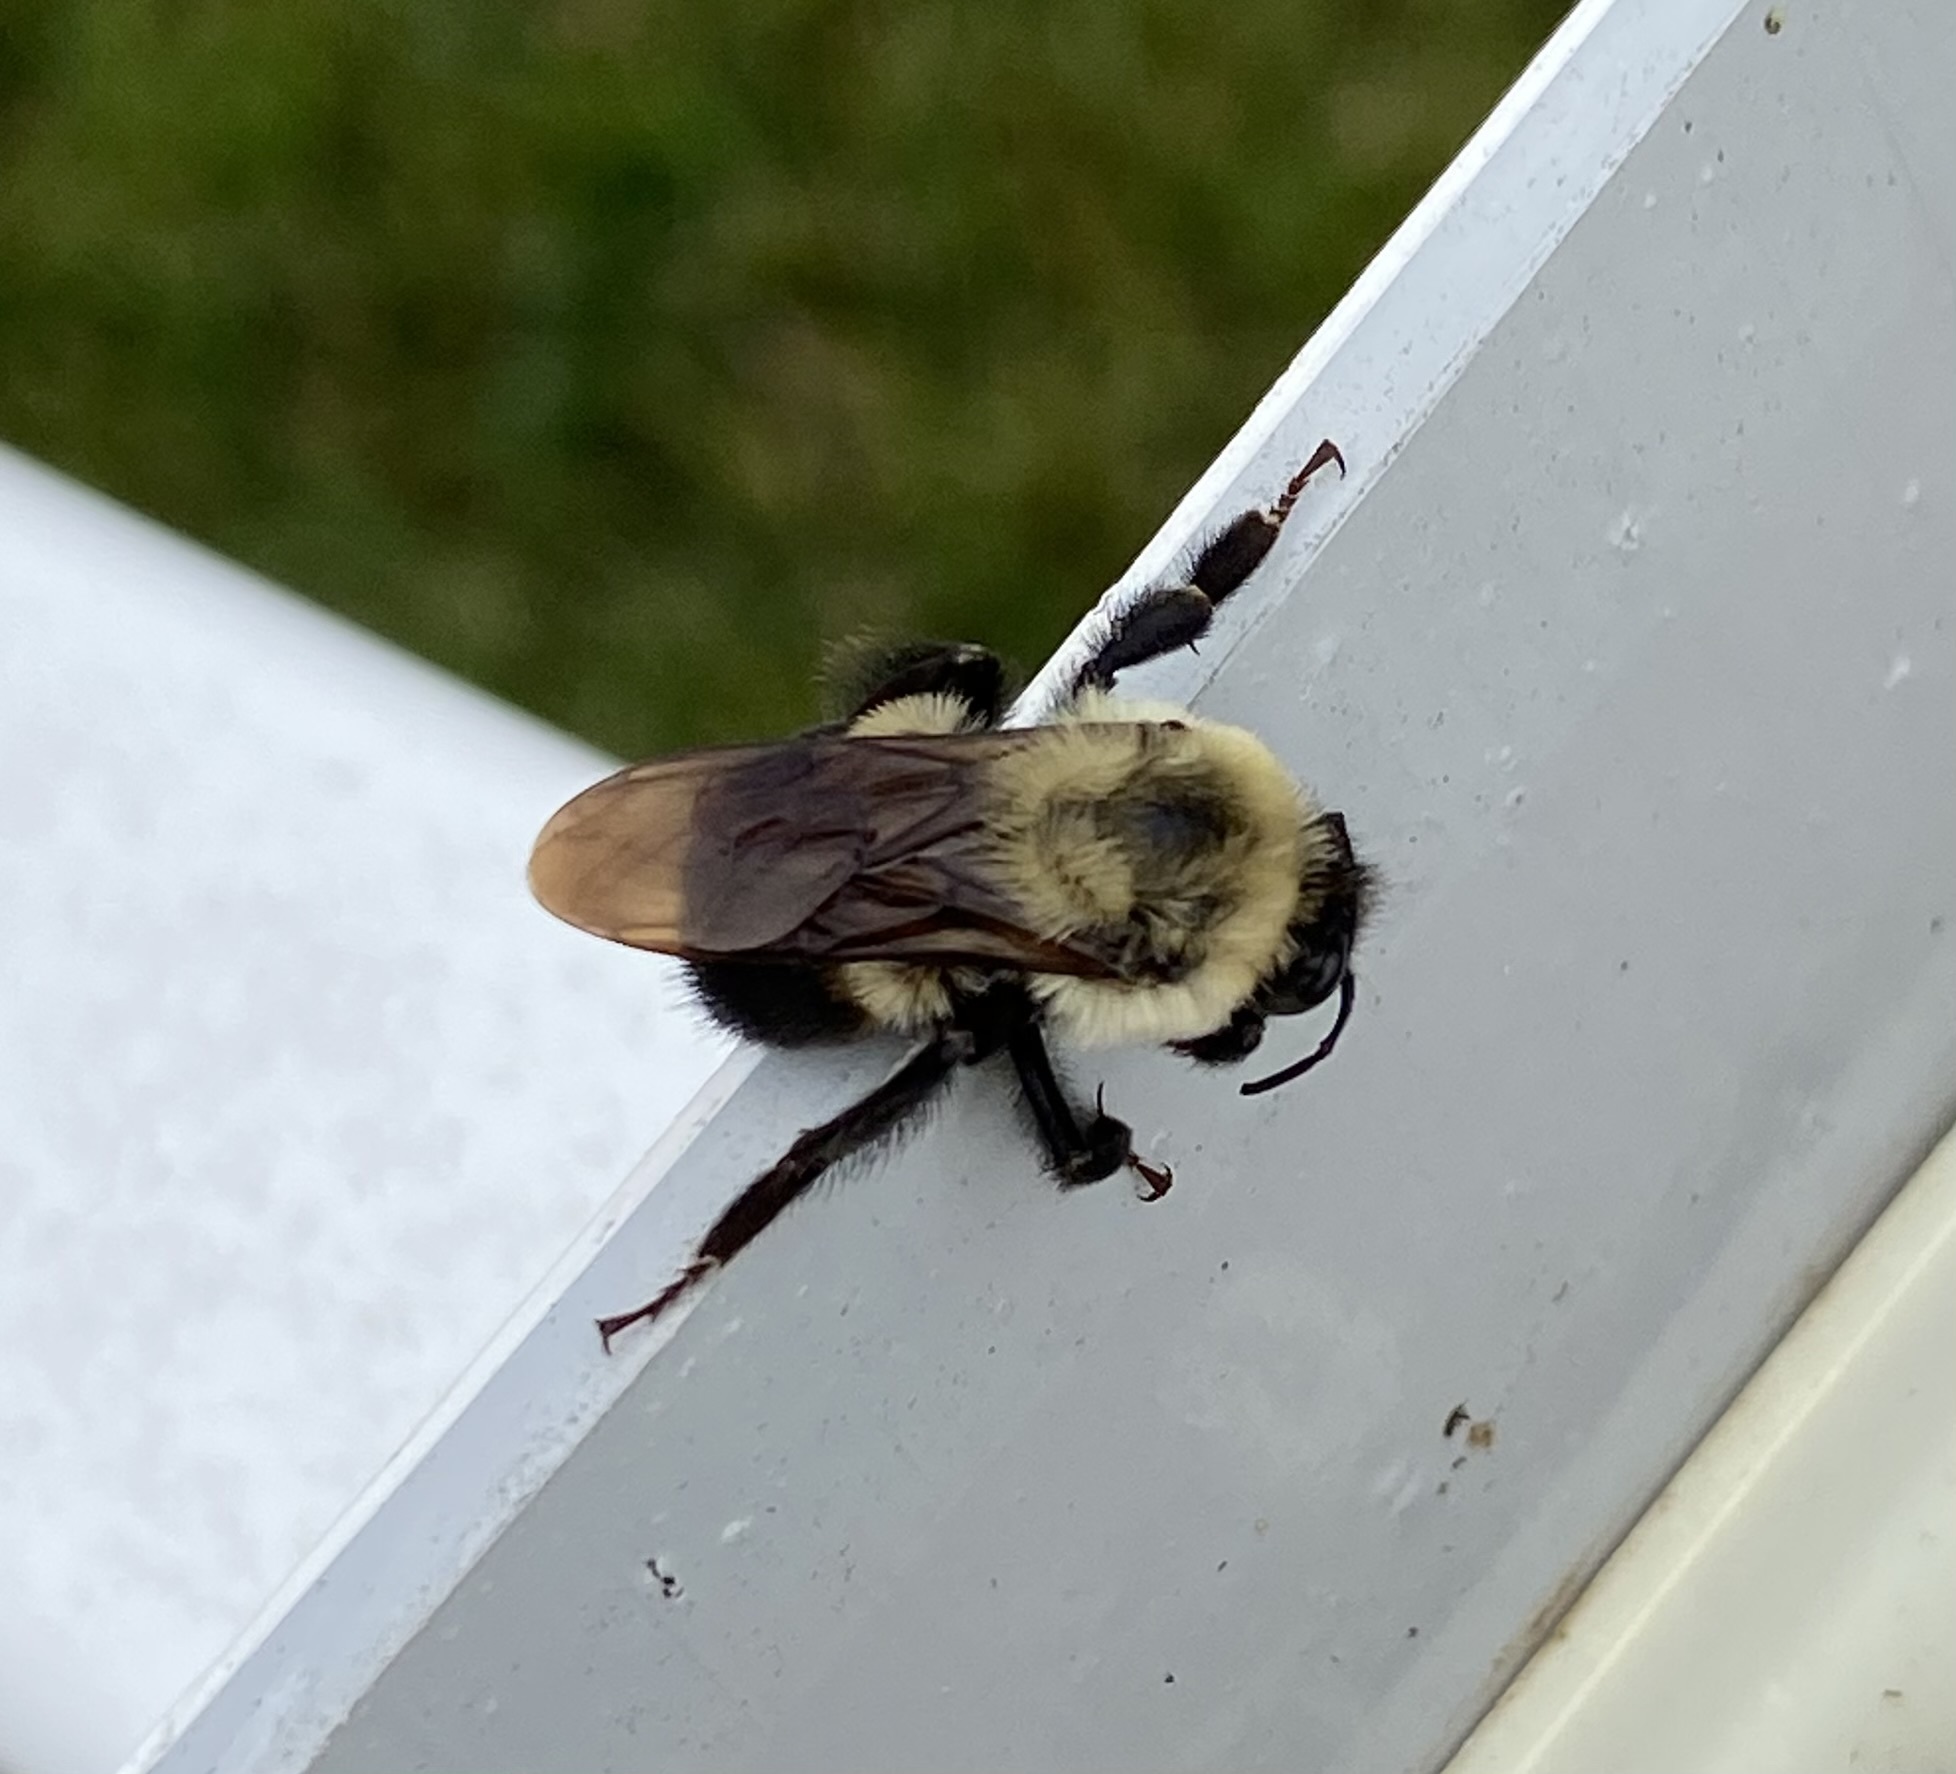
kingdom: Animalia
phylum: Arthropoda
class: Insecta
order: Hymenoptera
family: Apidae
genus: Bombus
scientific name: Bombus griseocollis
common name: Brown-belted bumble bee
